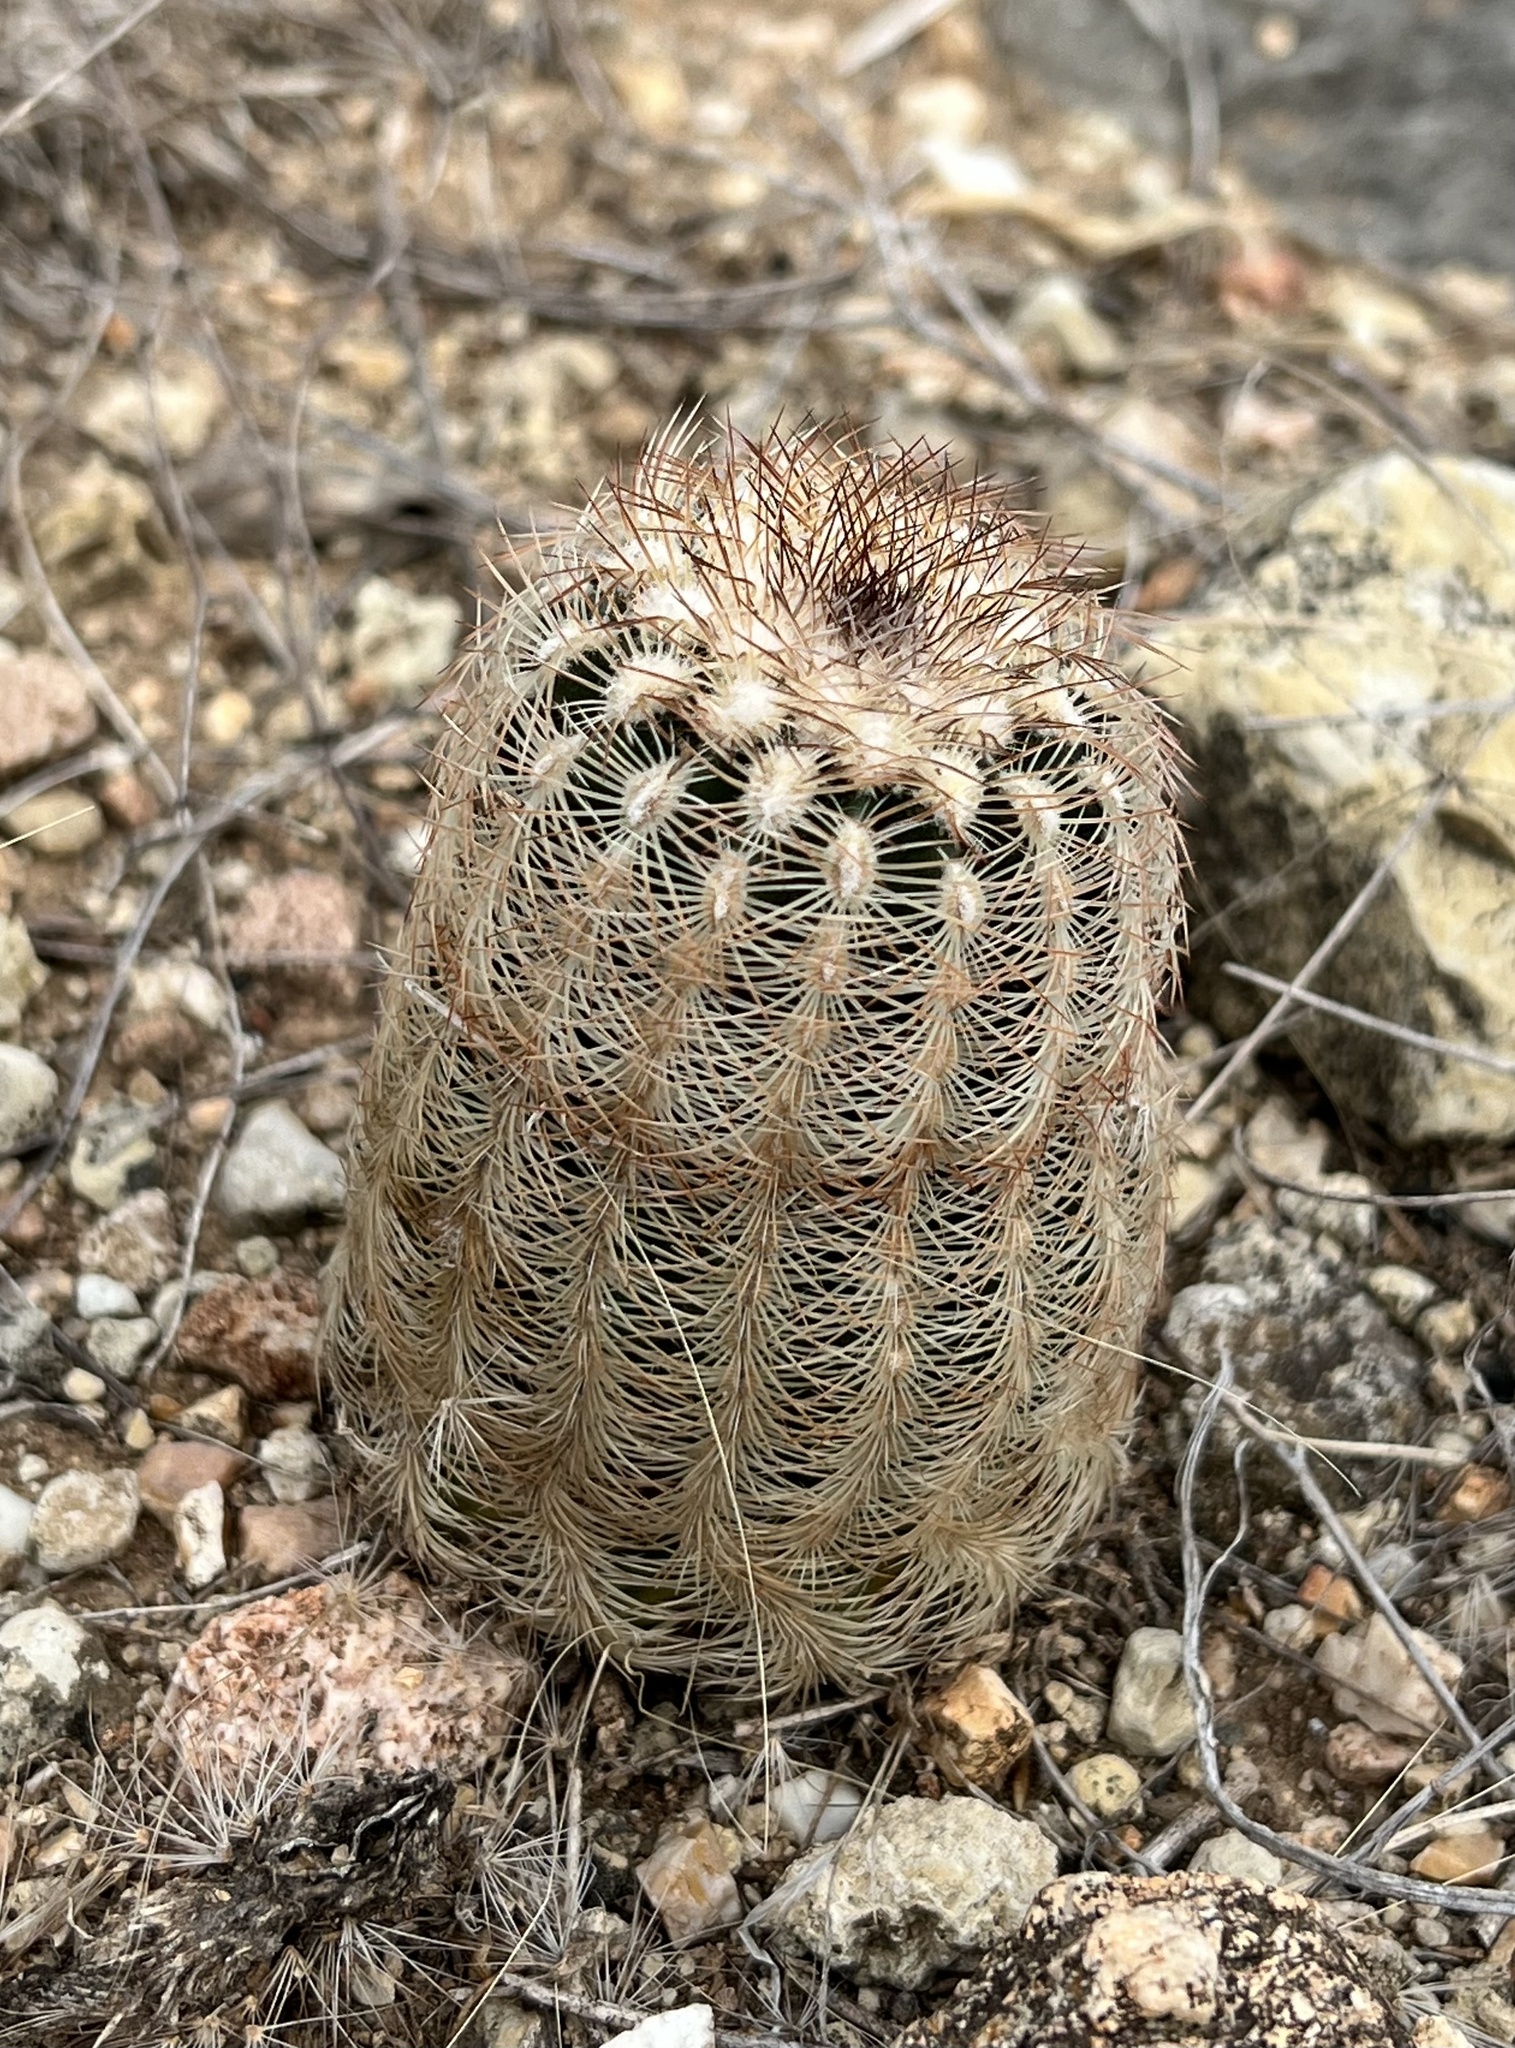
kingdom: Plantae
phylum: Tracheophyta
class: Magnoliopsida
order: Caryophyllales
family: Cactaceae
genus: Echinocereus
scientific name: Echinocereus reichenbachii
